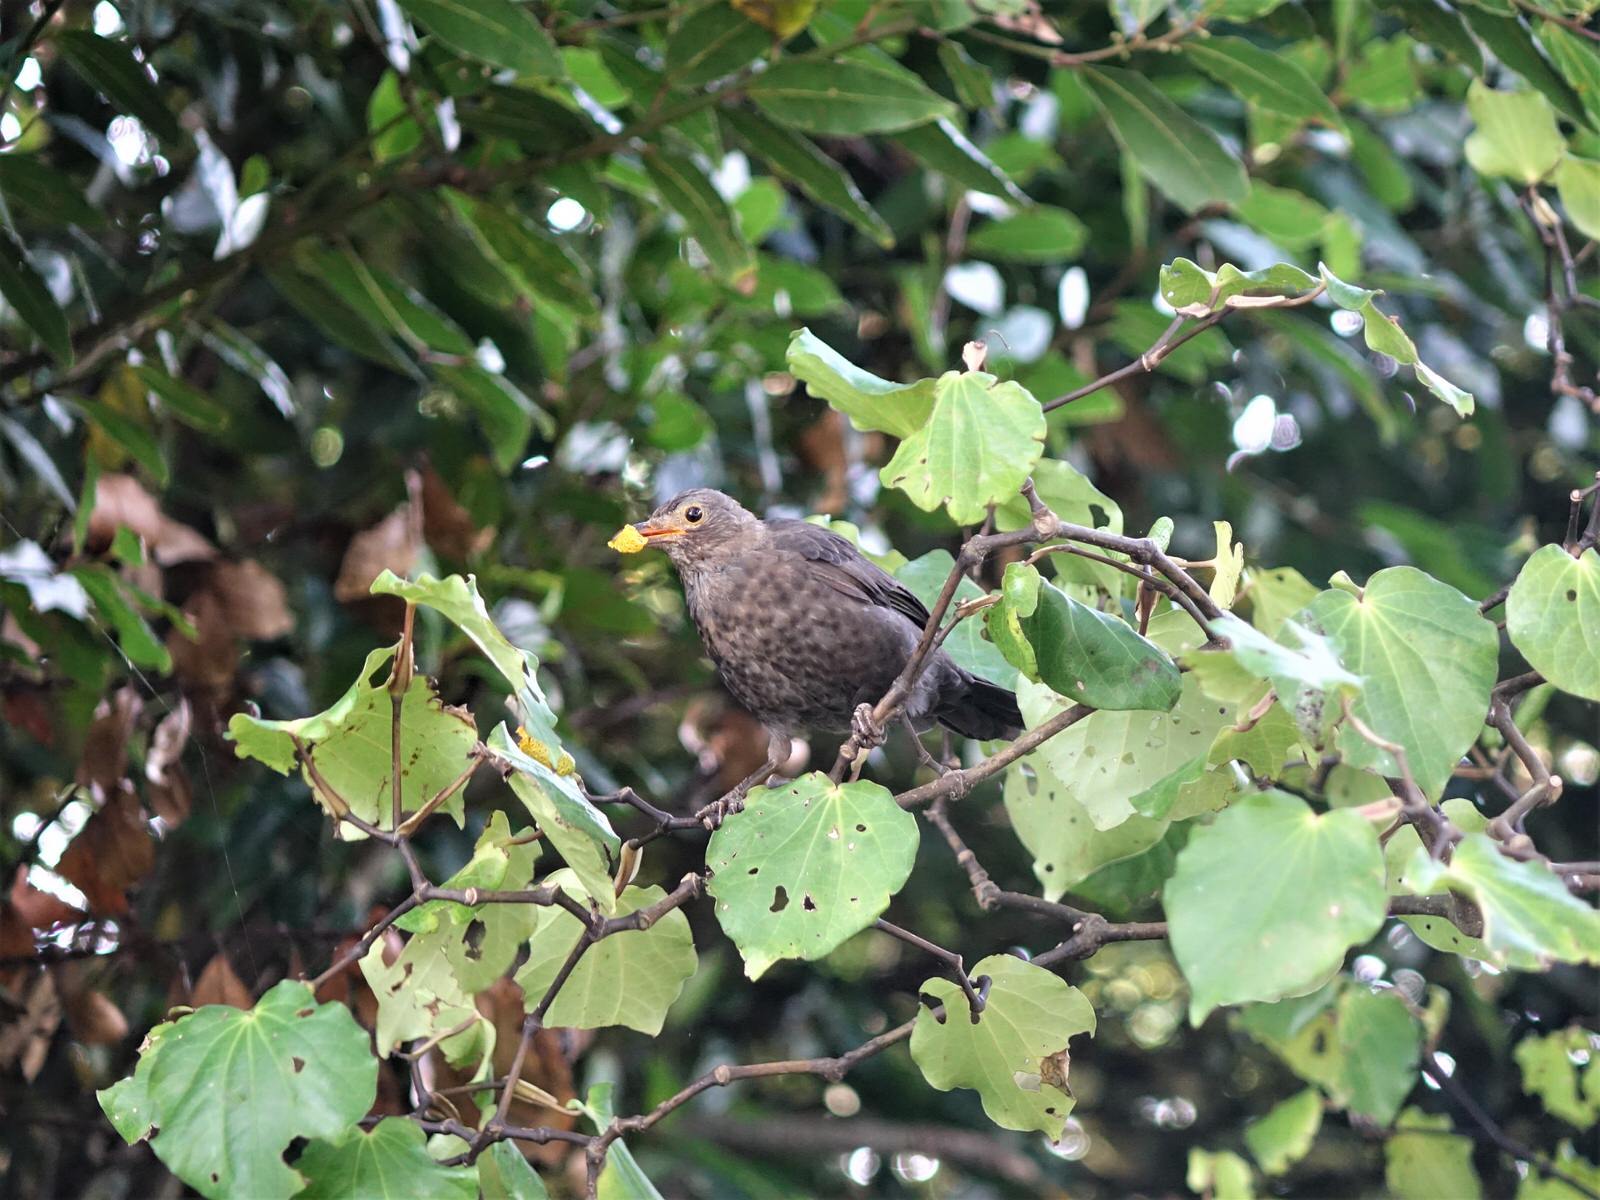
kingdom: Animalia
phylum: Chordata
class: Aves
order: Passeriformes
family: Turdidae
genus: Turdus
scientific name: Turdus merula
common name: Common blackbird
